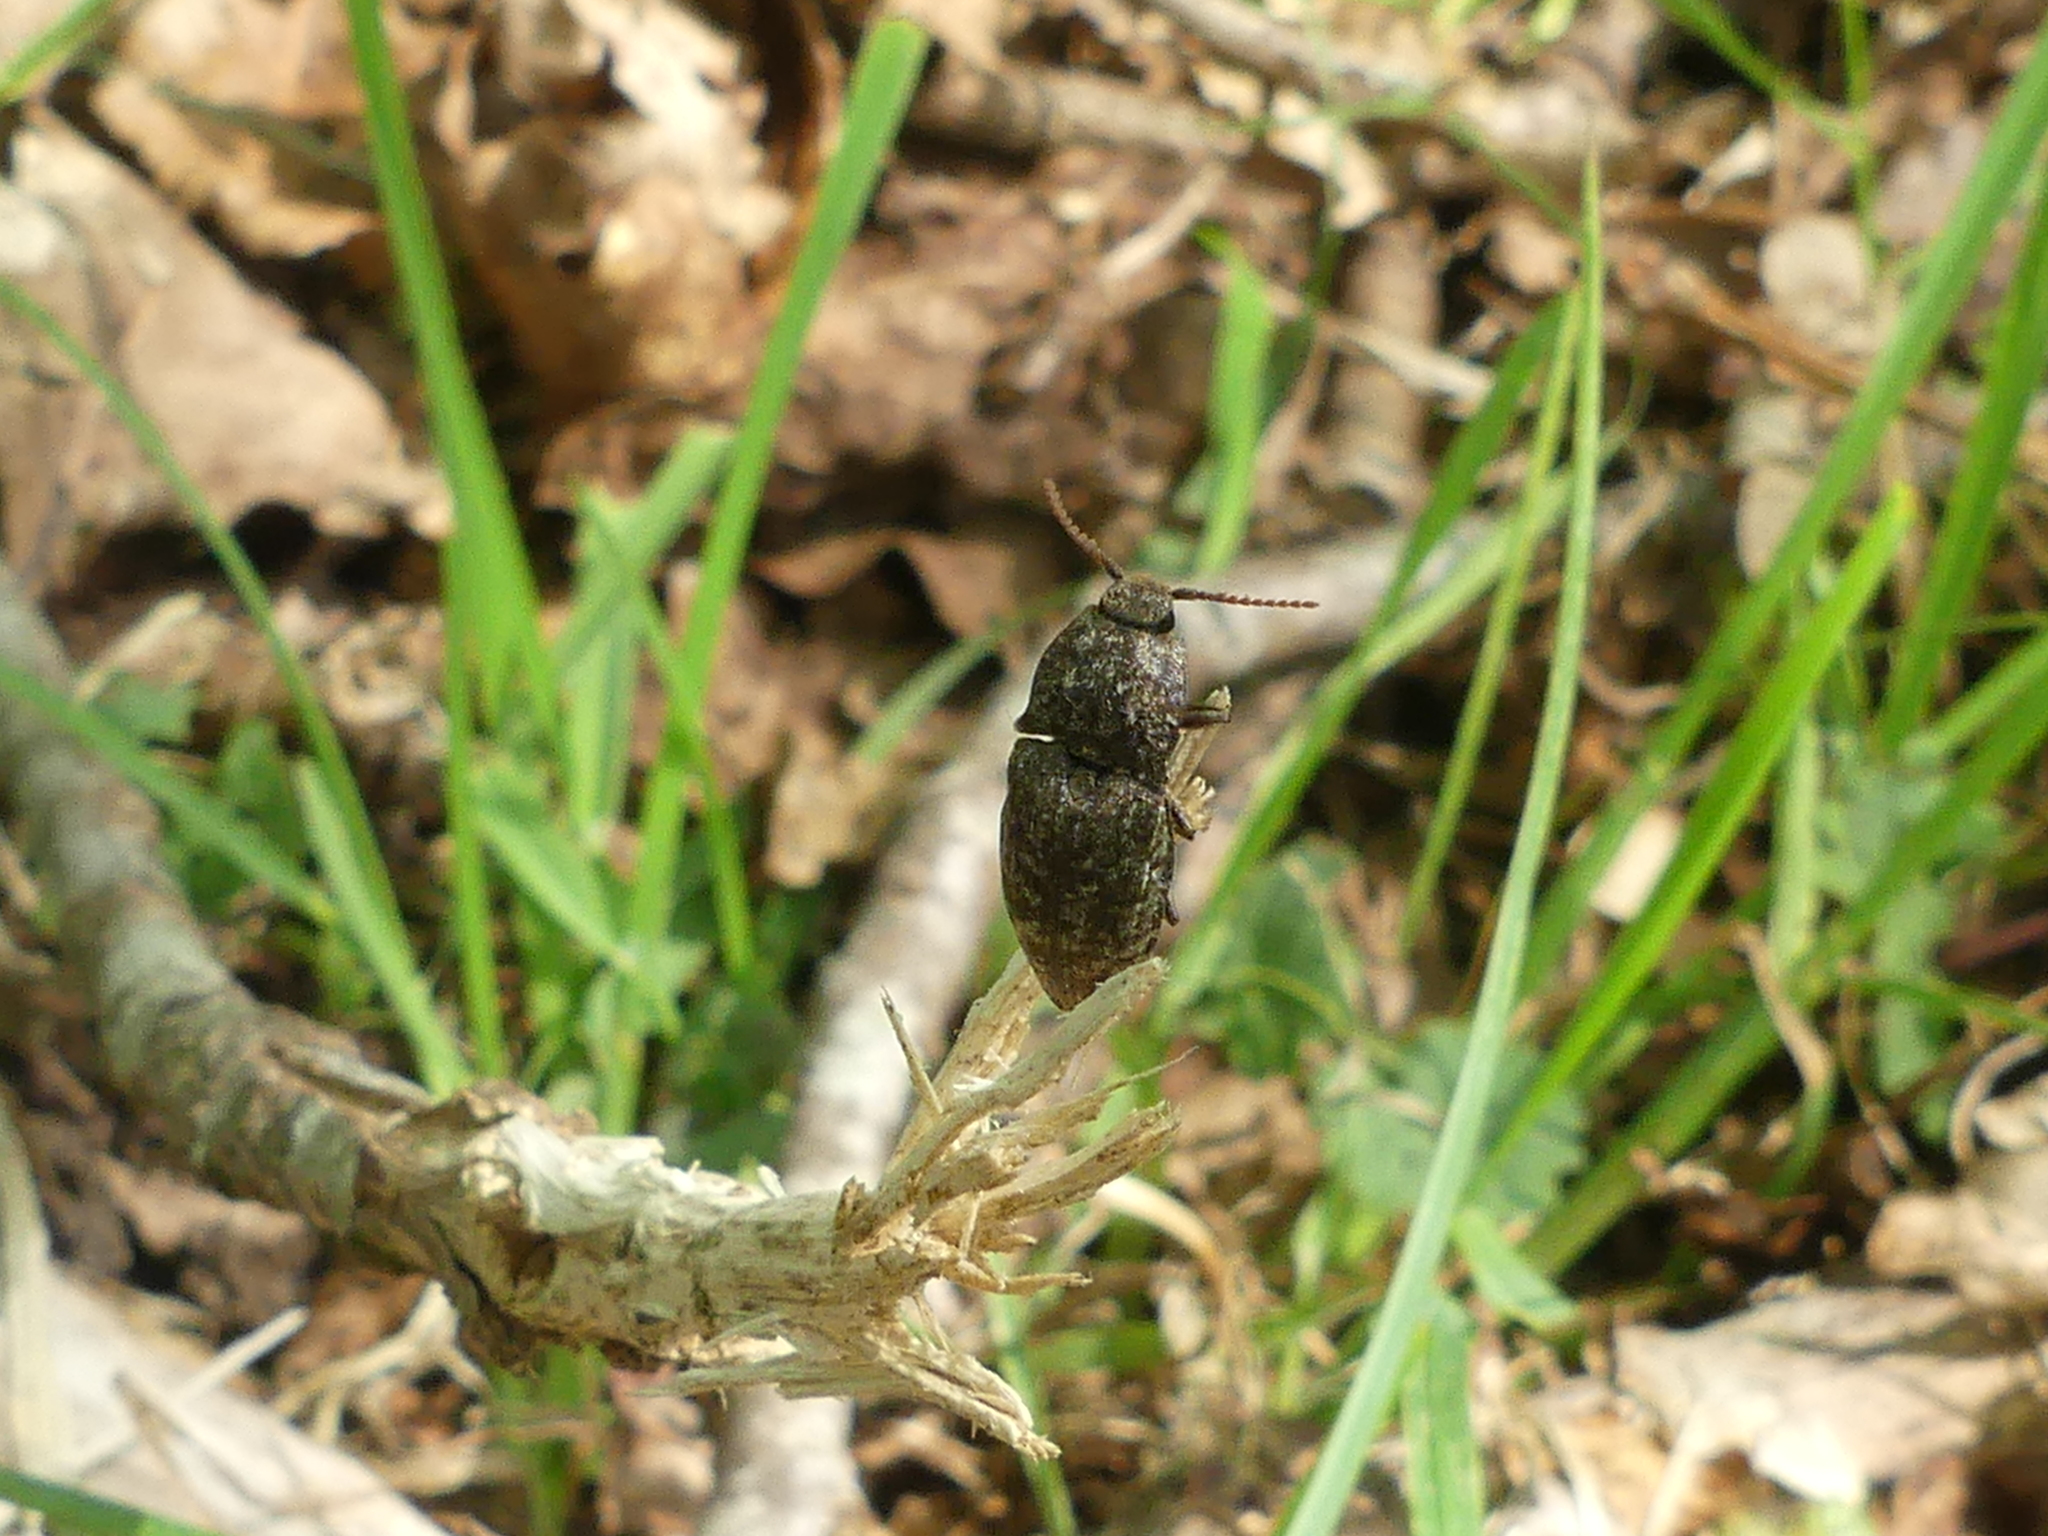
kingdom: Animalia
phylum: Arthropoda
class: Insecta
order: Coleoptera
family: Elateridae
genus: Agrypnus
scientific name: Agrypnus murinus
